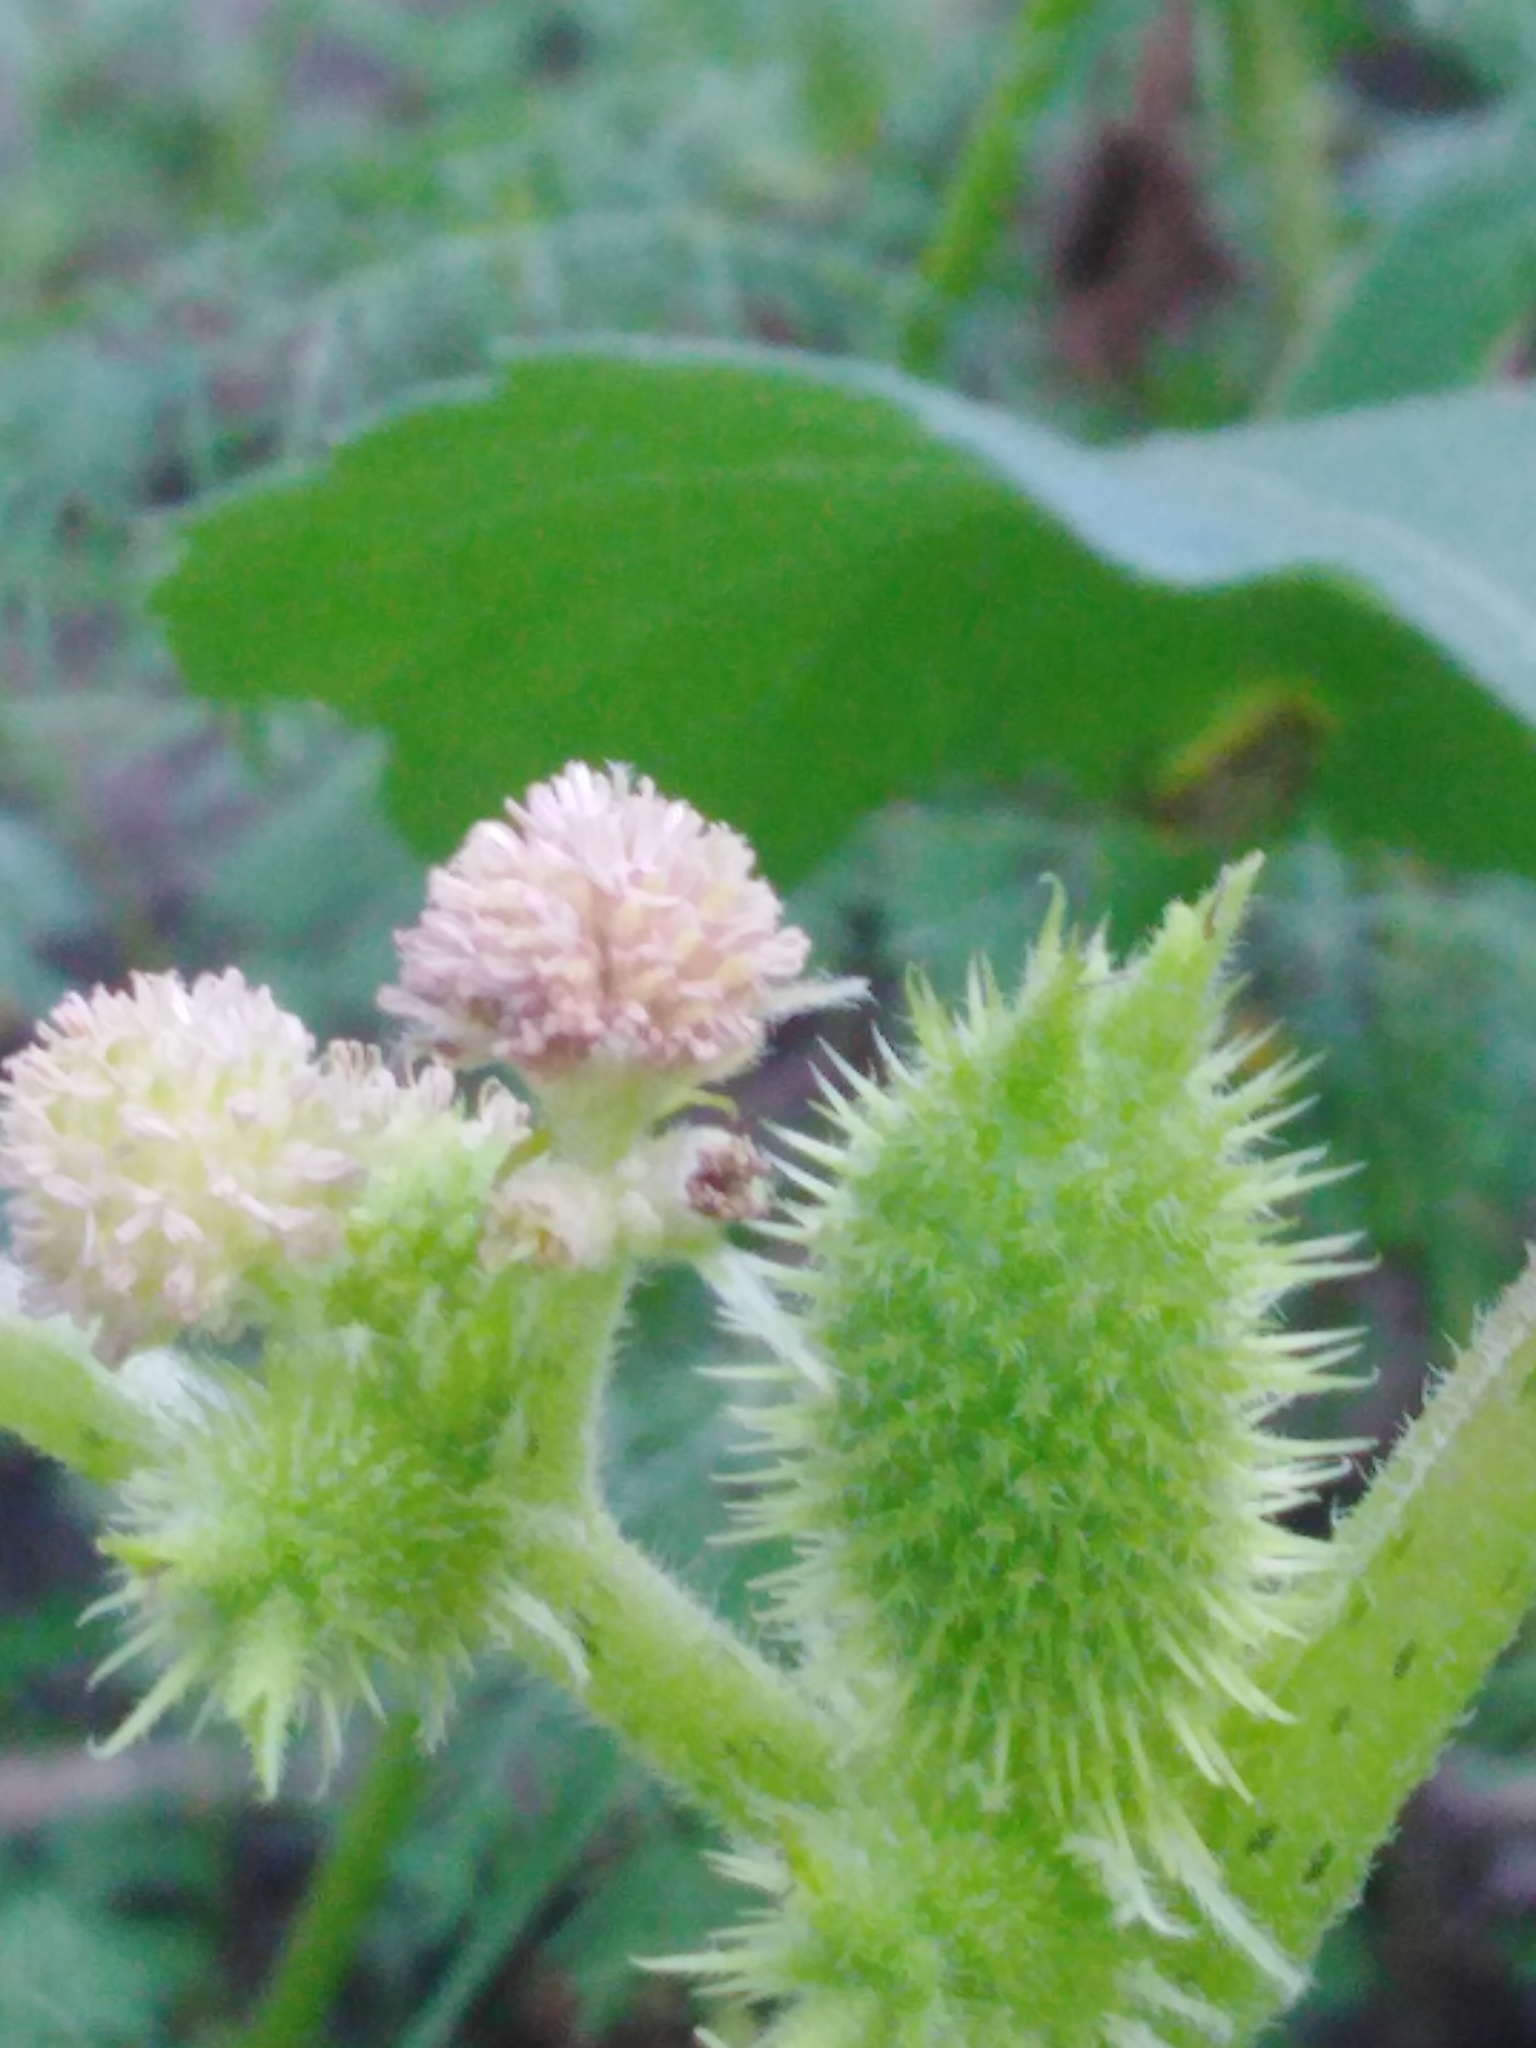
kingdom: Plantae
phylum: Tracheophyta
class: Magnoliopsida
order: Asterales
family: Asteraceae
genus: Xanthium
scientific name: Xanthium orientale
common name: Californian burr
